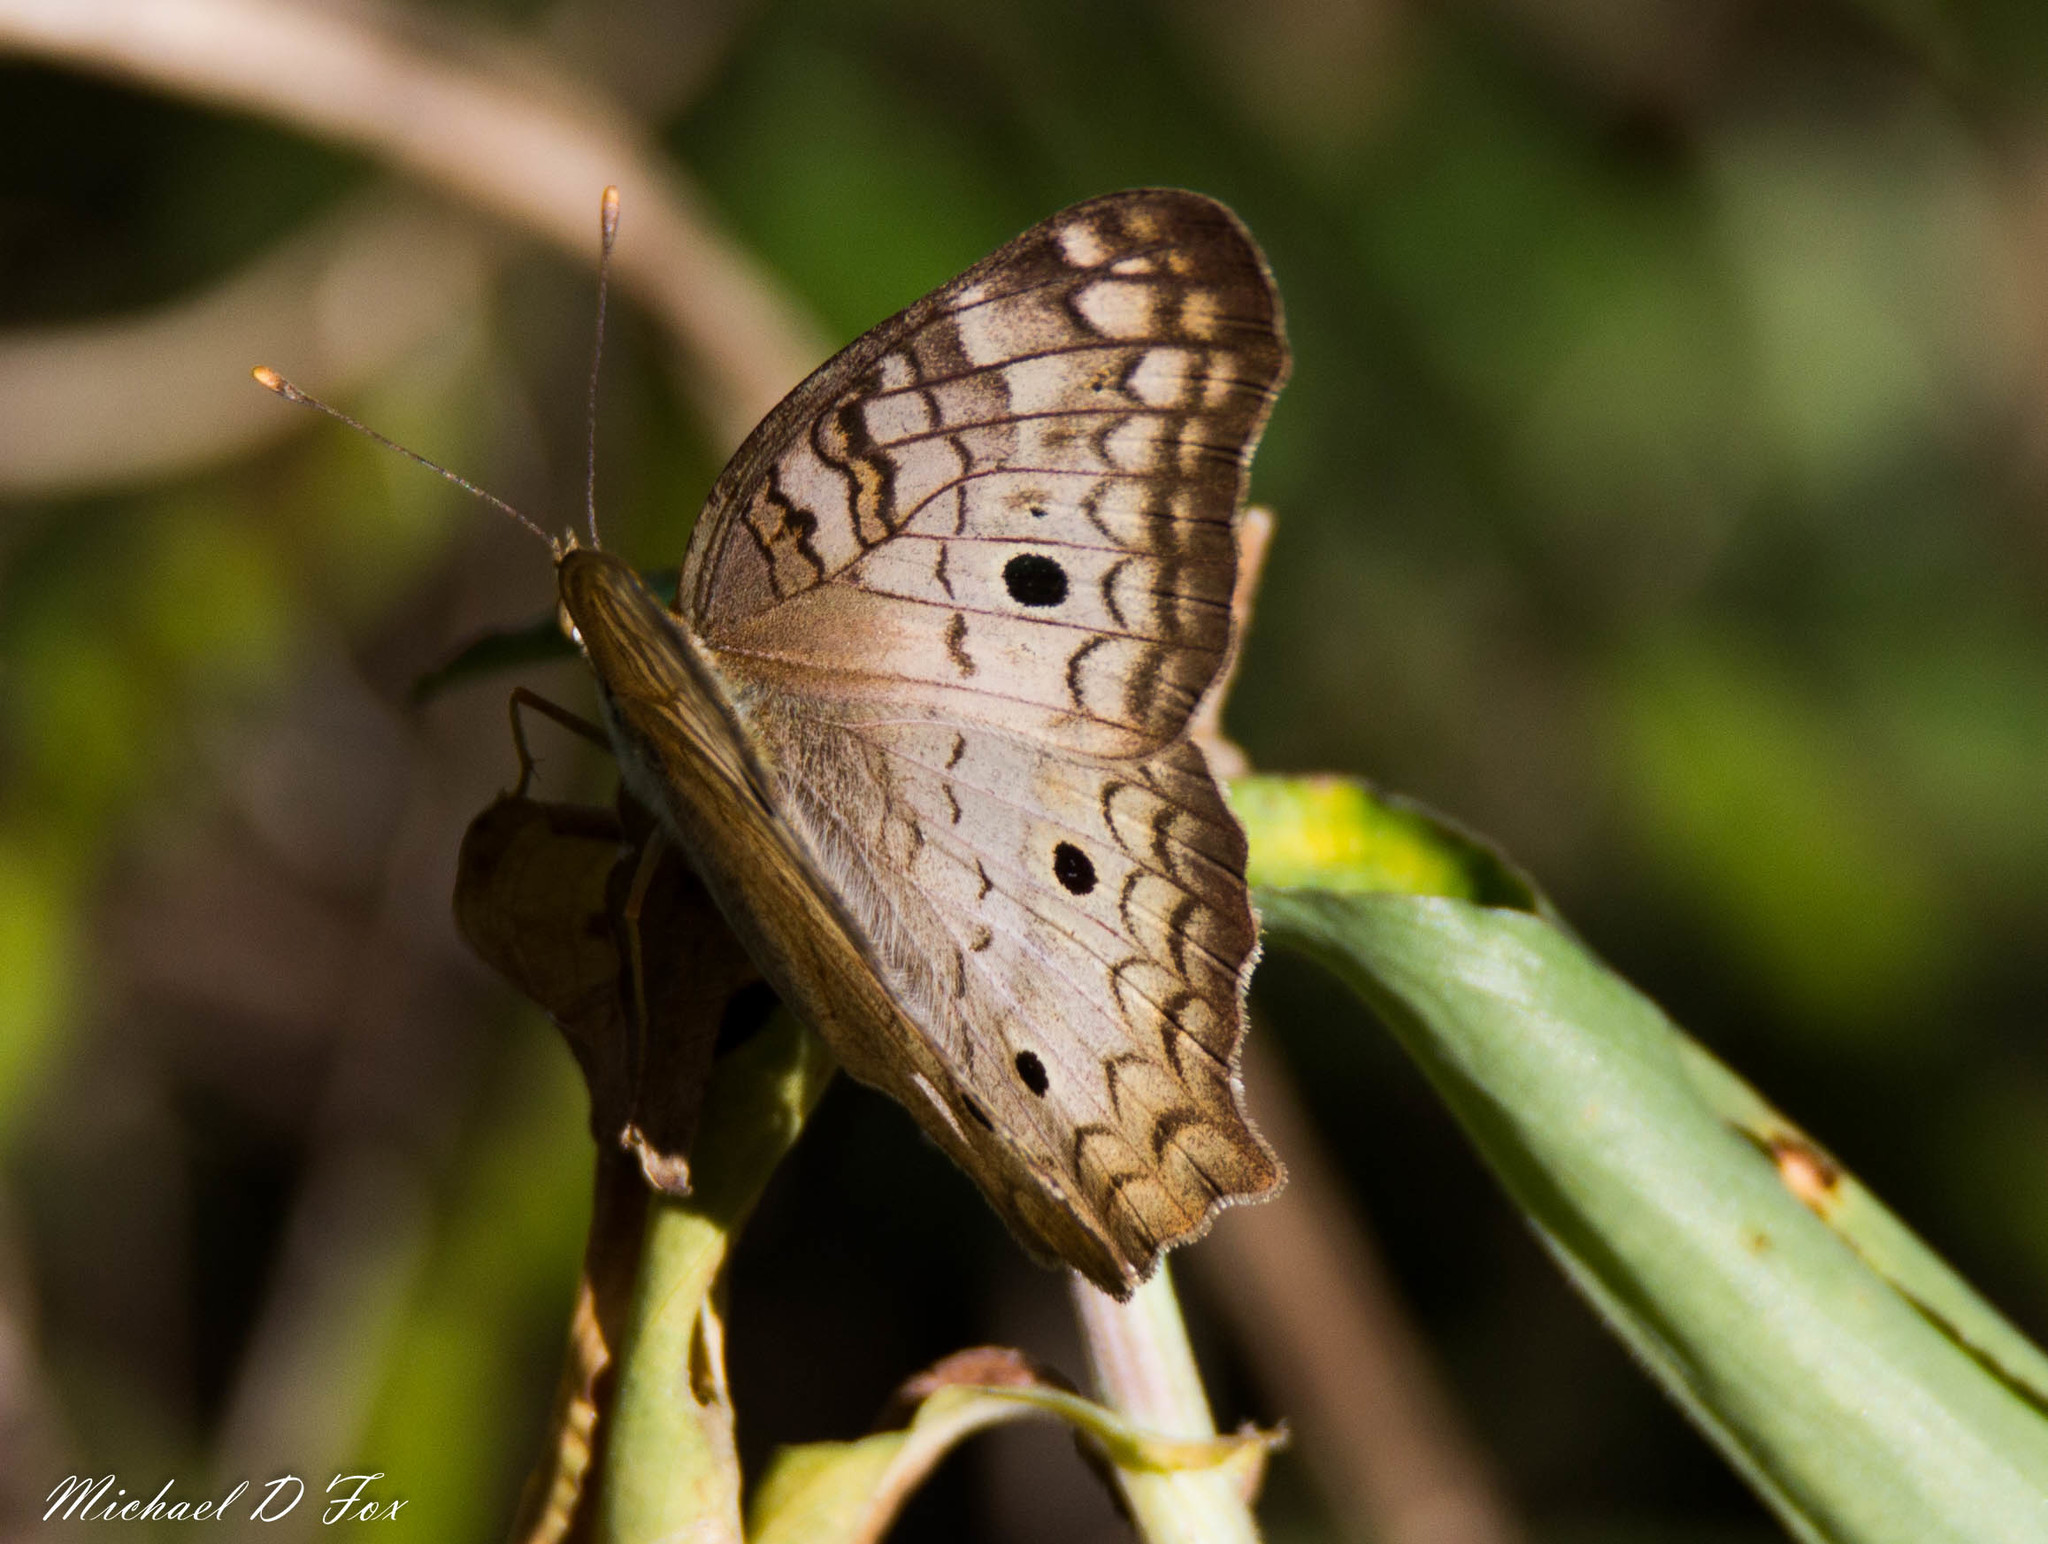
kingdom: Animalia
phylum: Arthropoda
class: Insecta
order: Lepidoptera
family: Nymphalidae
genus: Anartia
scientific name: Anartia jatrophae
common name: White peacock
